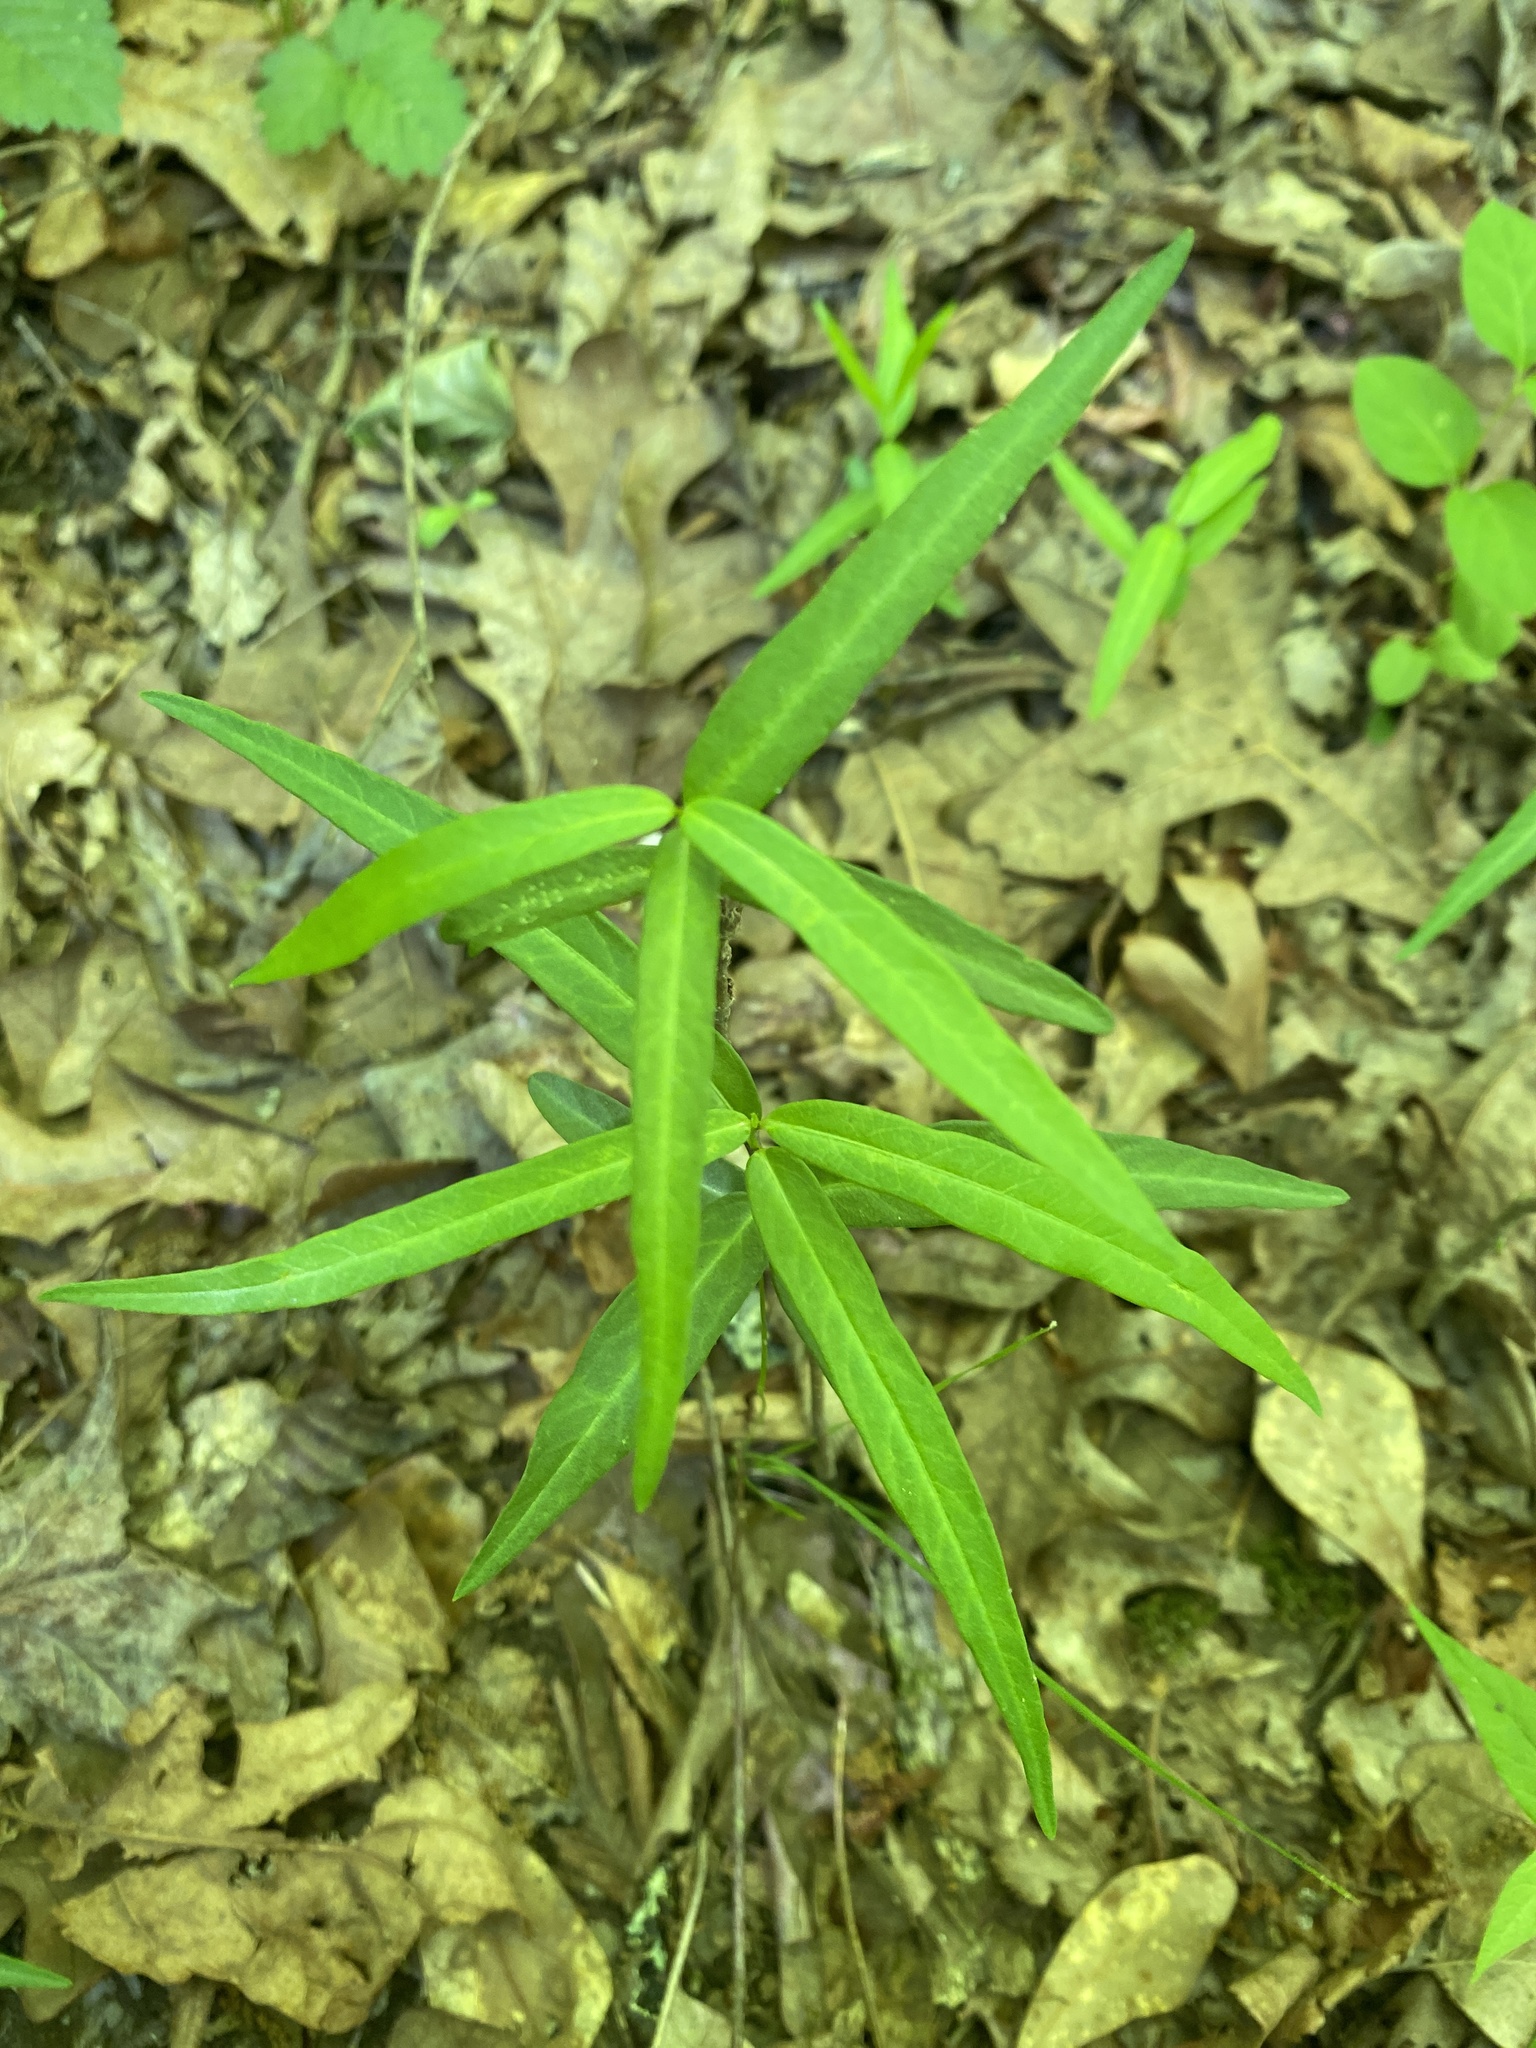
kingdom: Plantae
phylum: Tracheophyta
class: Magnoliopsida
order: Gentianales
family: Apocynaceae
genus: Thyrsanthella
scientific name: Thyrsanthella difformis
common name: Climbing dogbane
